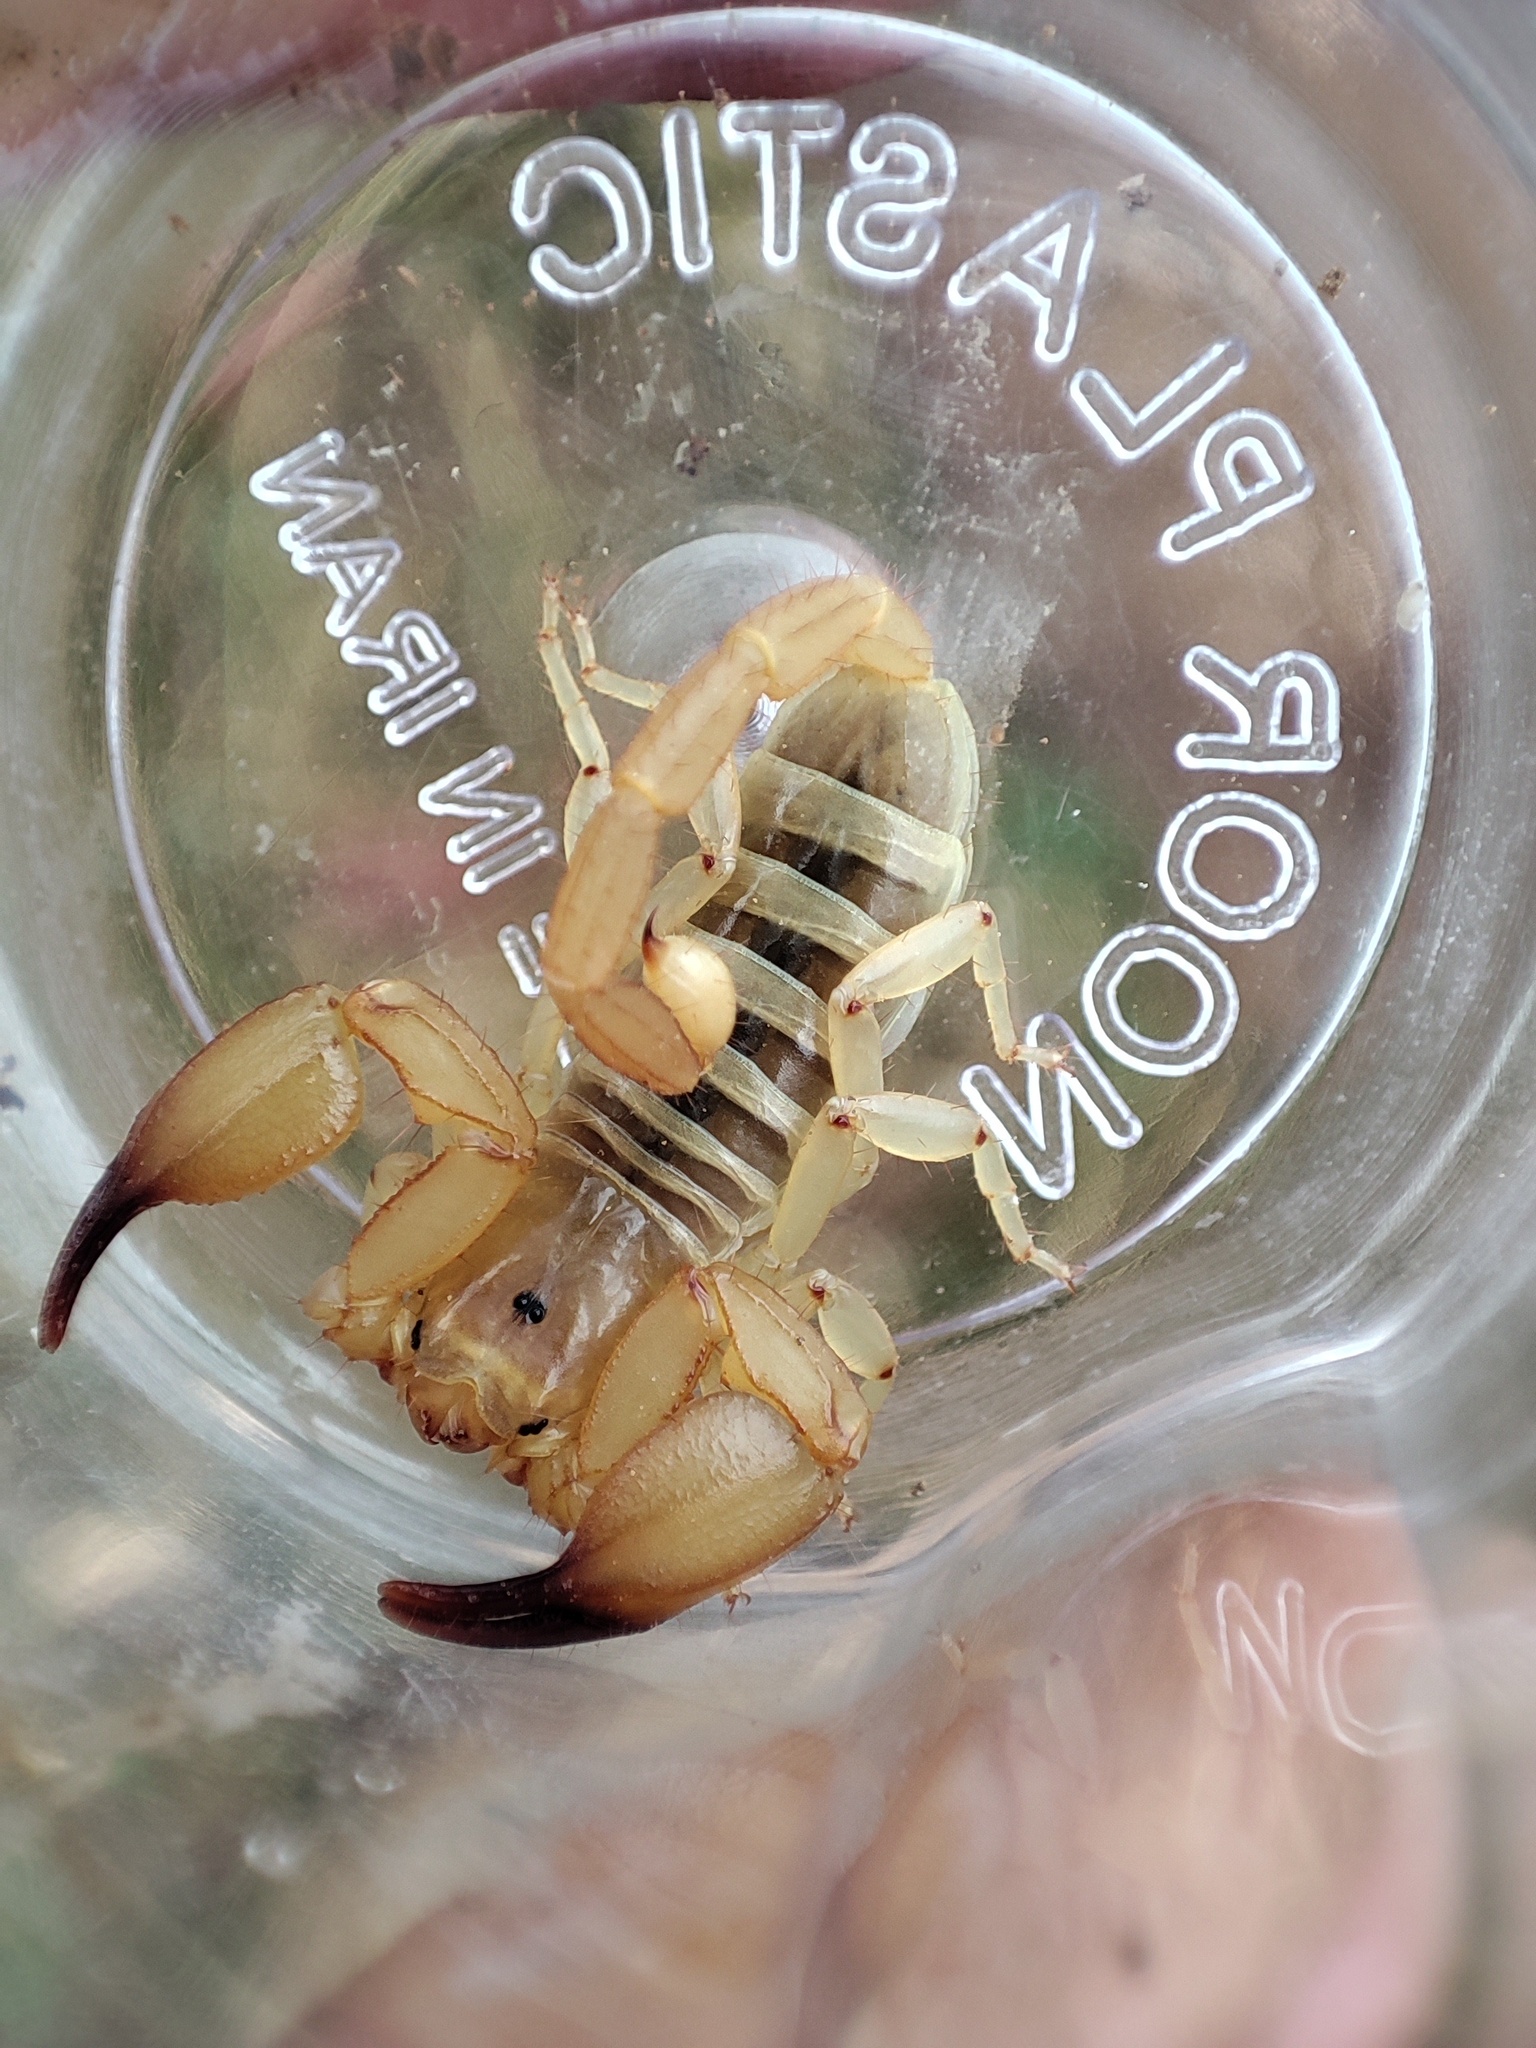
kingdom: Animalia
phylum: Arthropoda
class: Arachnida
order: Scorpiones
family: Hemiscorpiidae
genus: Hemiscorpius
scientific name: Hemiscorpius lepturus
